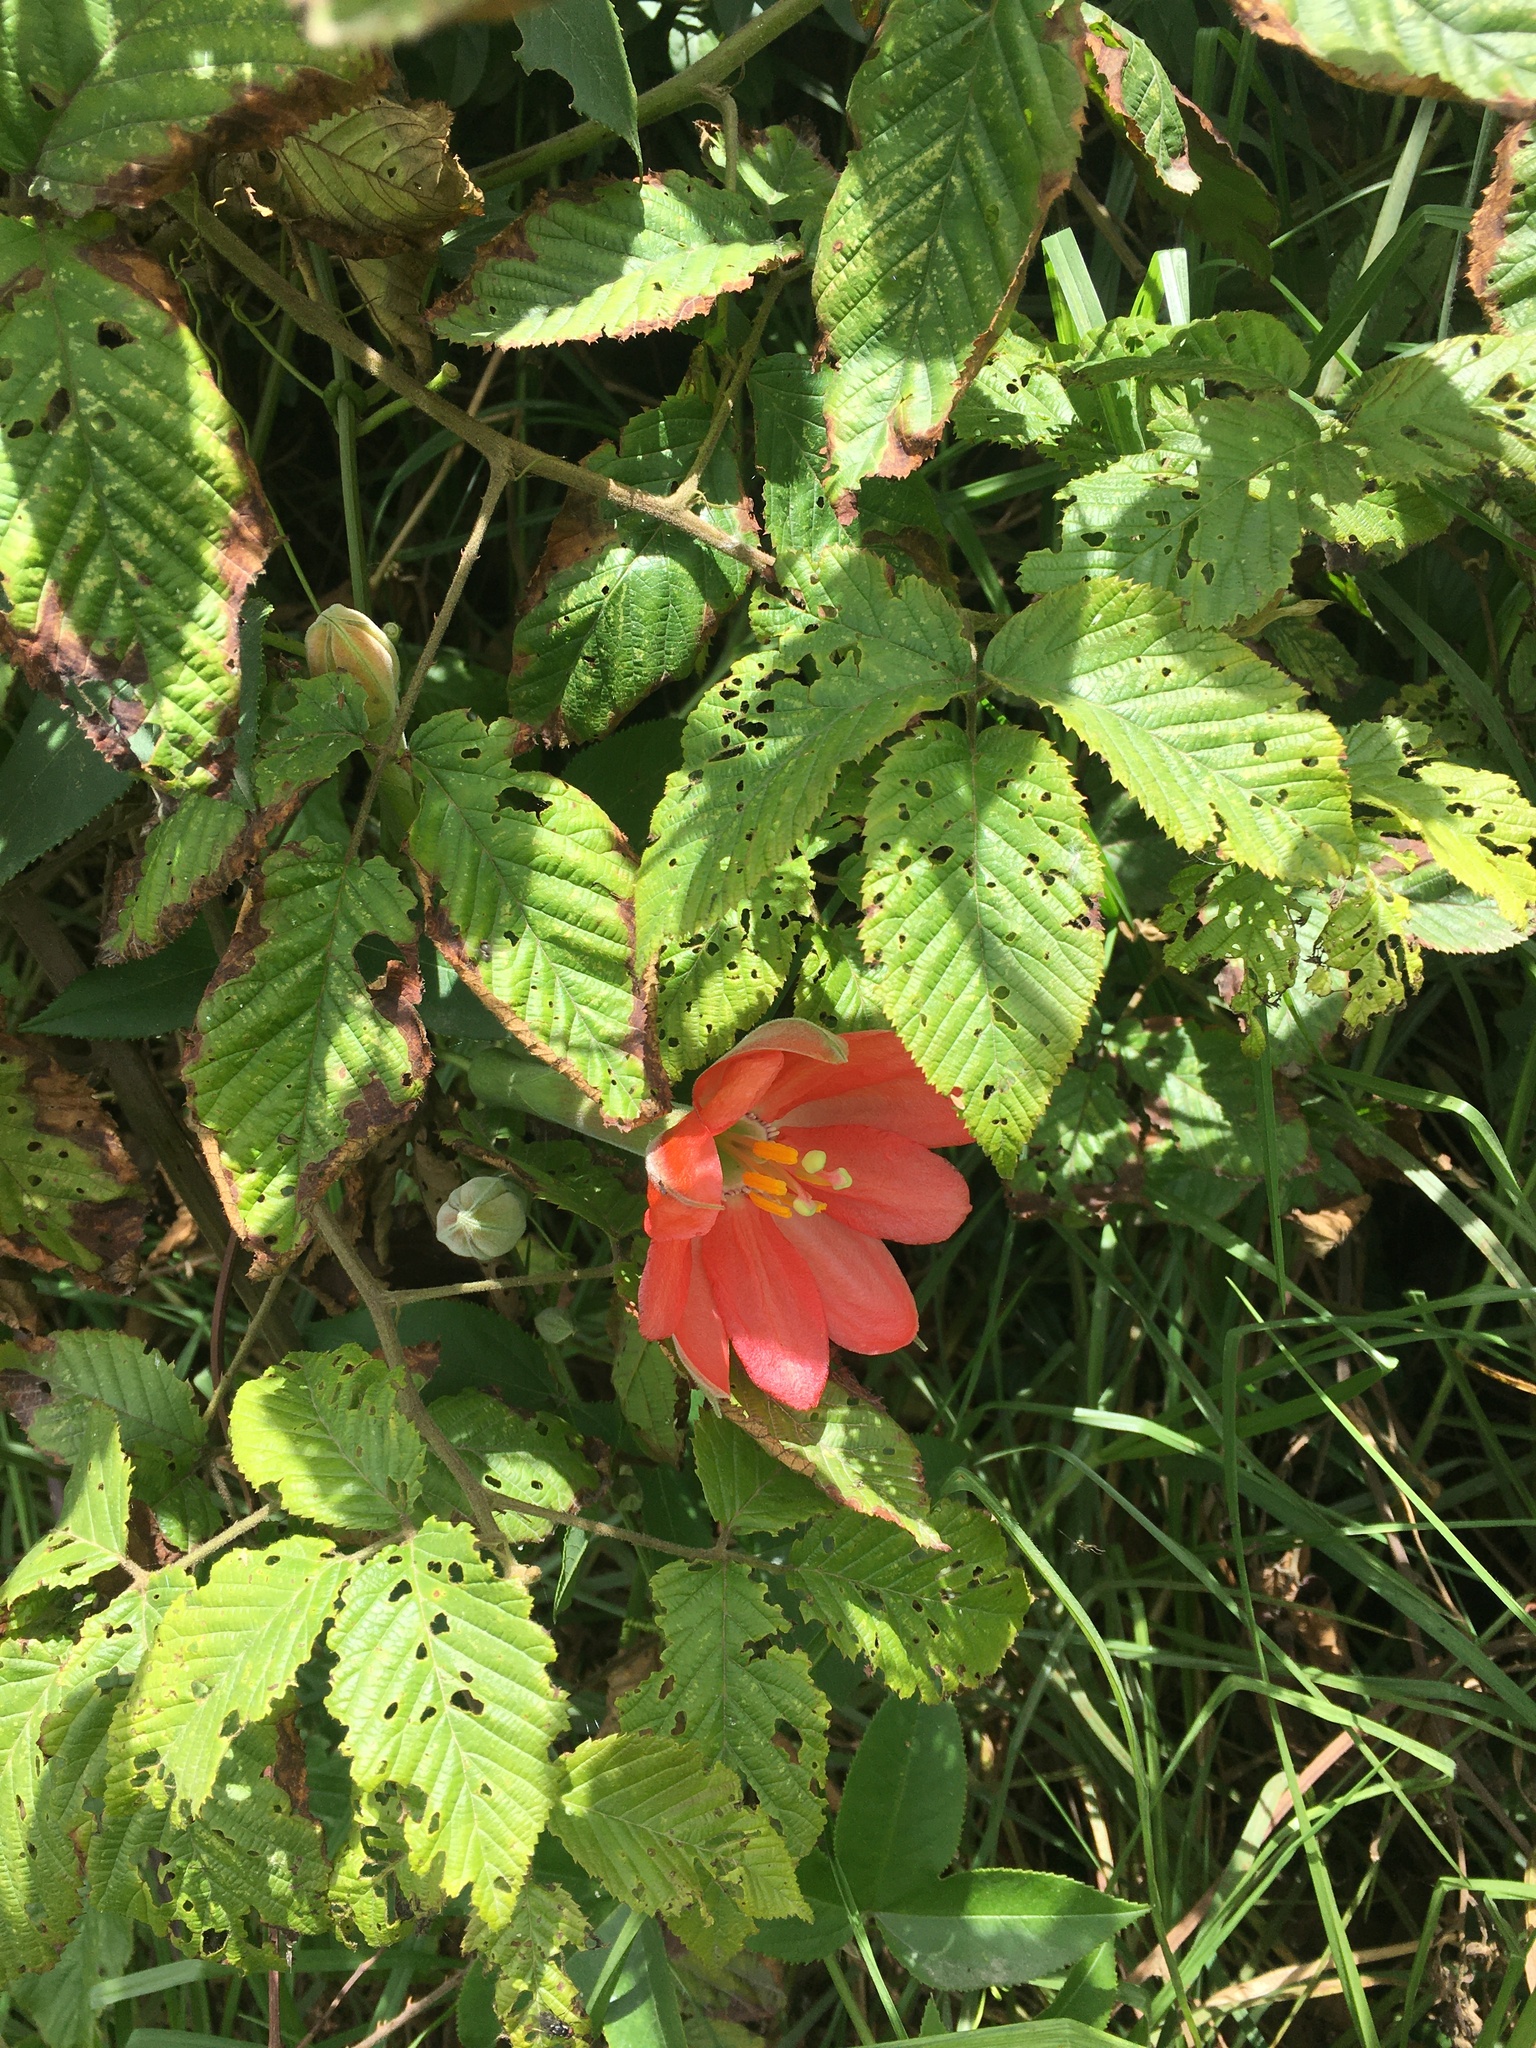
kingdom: Plantae
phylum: Tracheophyta
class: Magnoliopsida
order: Malpighiales
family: Passifloraceae
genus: Passiflora
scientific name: Passiflora mixta
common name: Passion flower
